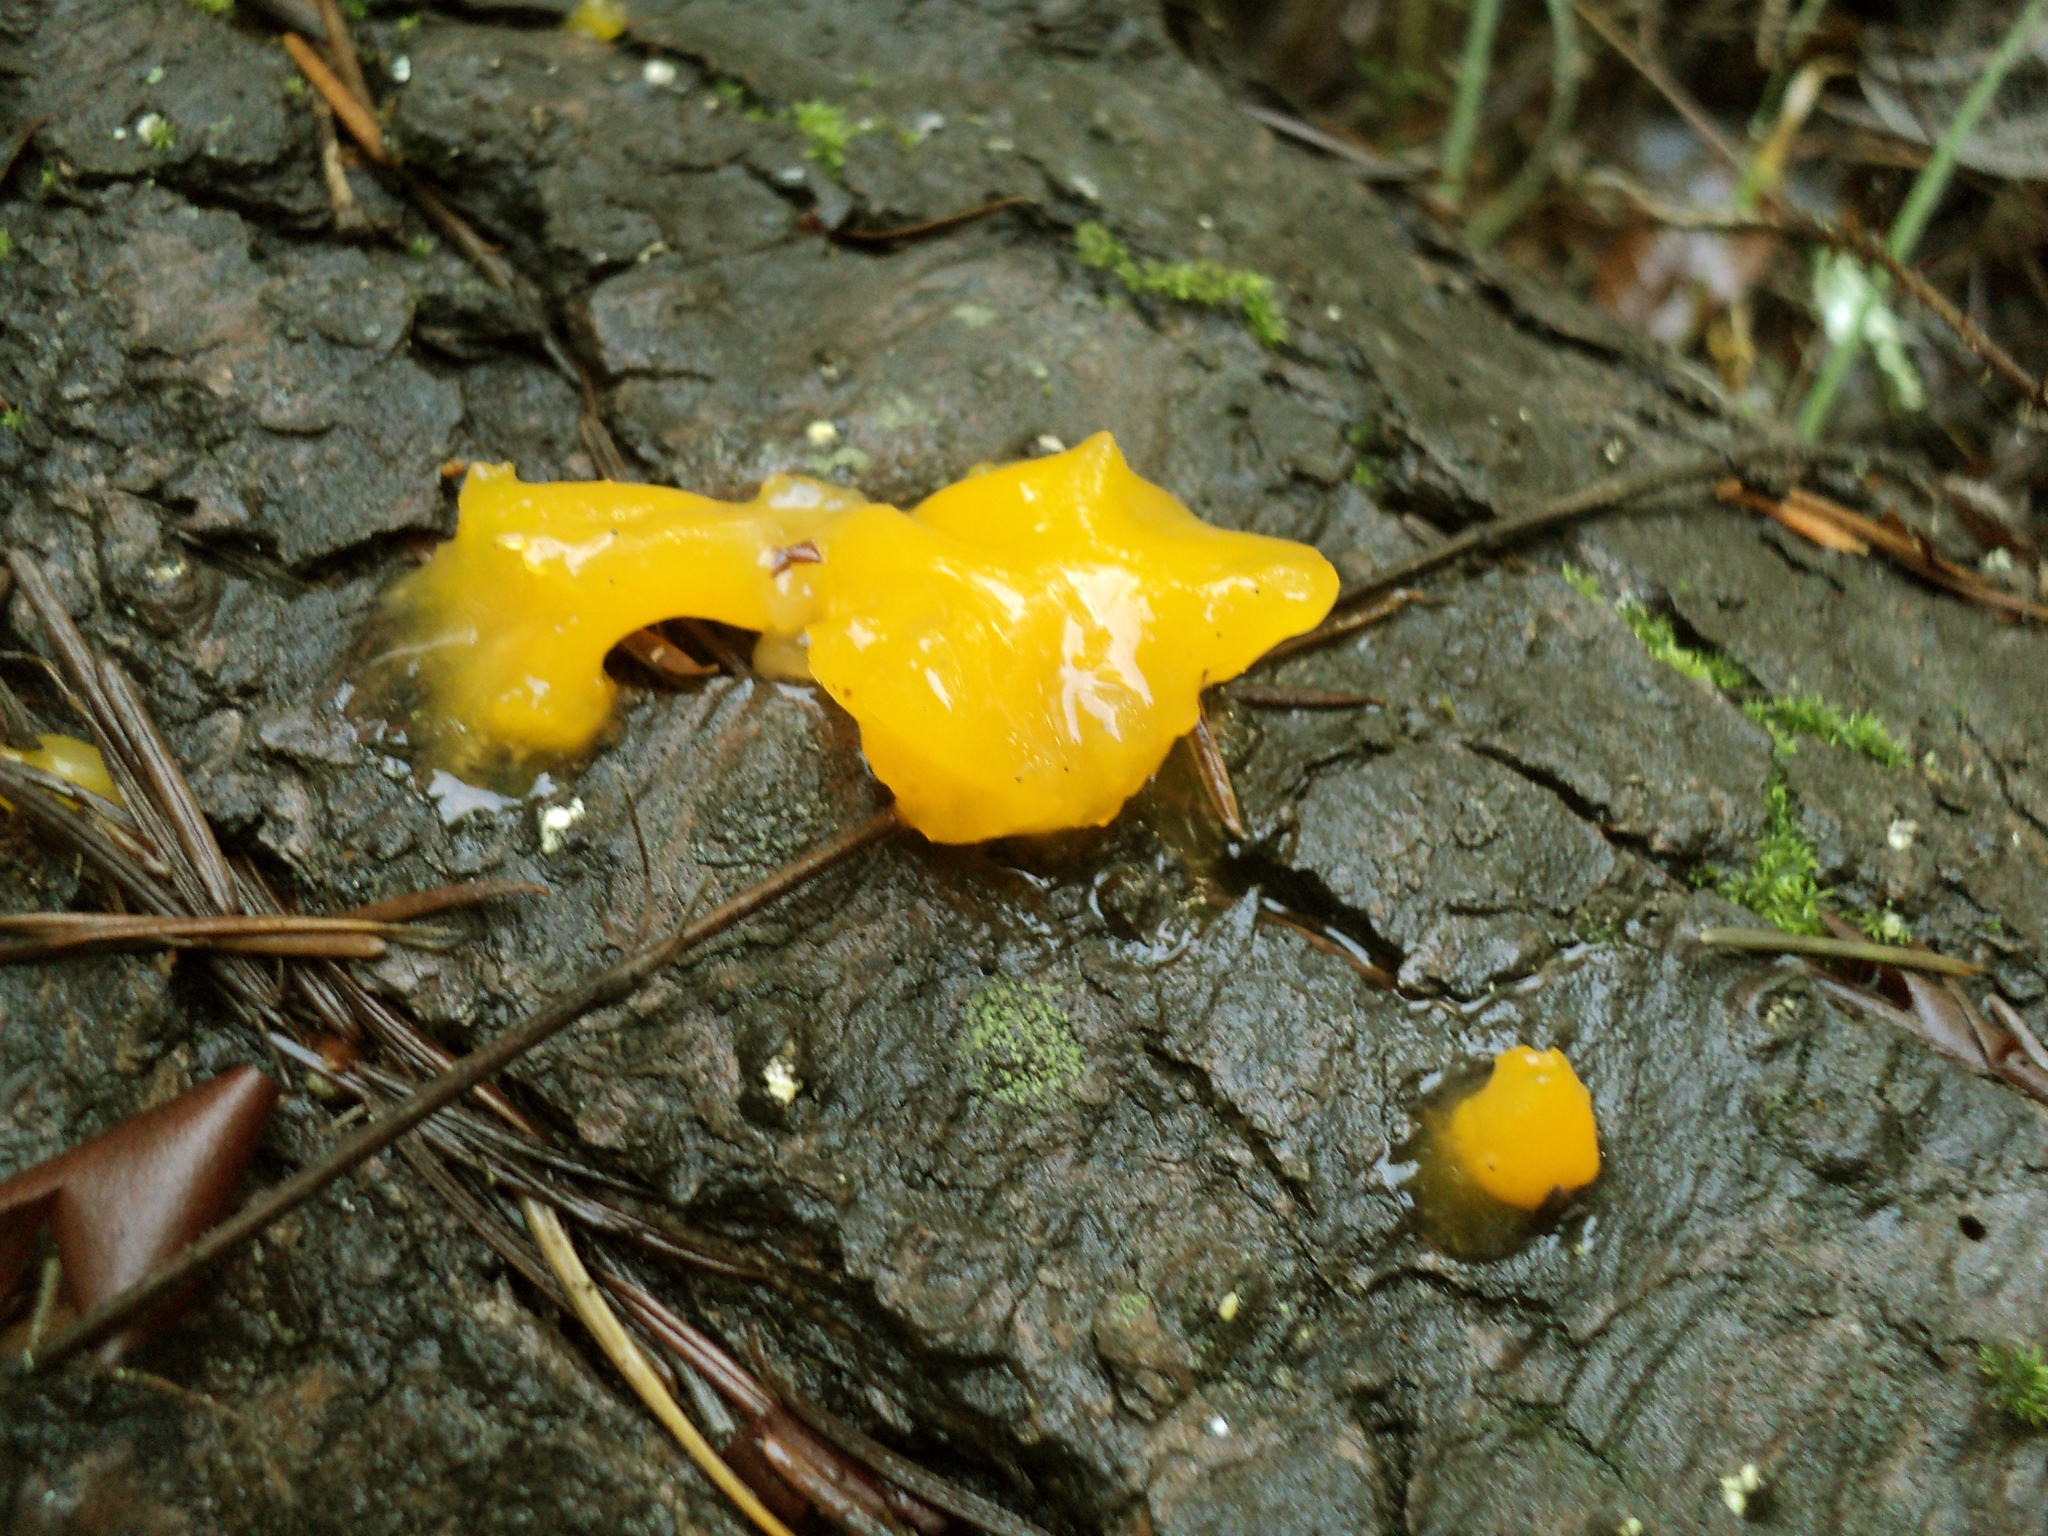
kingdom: Fungi
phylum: Basidiomycota
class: Dacrymycetes
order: Dacrymycetales
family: Dacrymycetaceae
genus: Dacrymyces
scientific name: Dacrymyces chrysospermus
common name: Orange jelly spot
